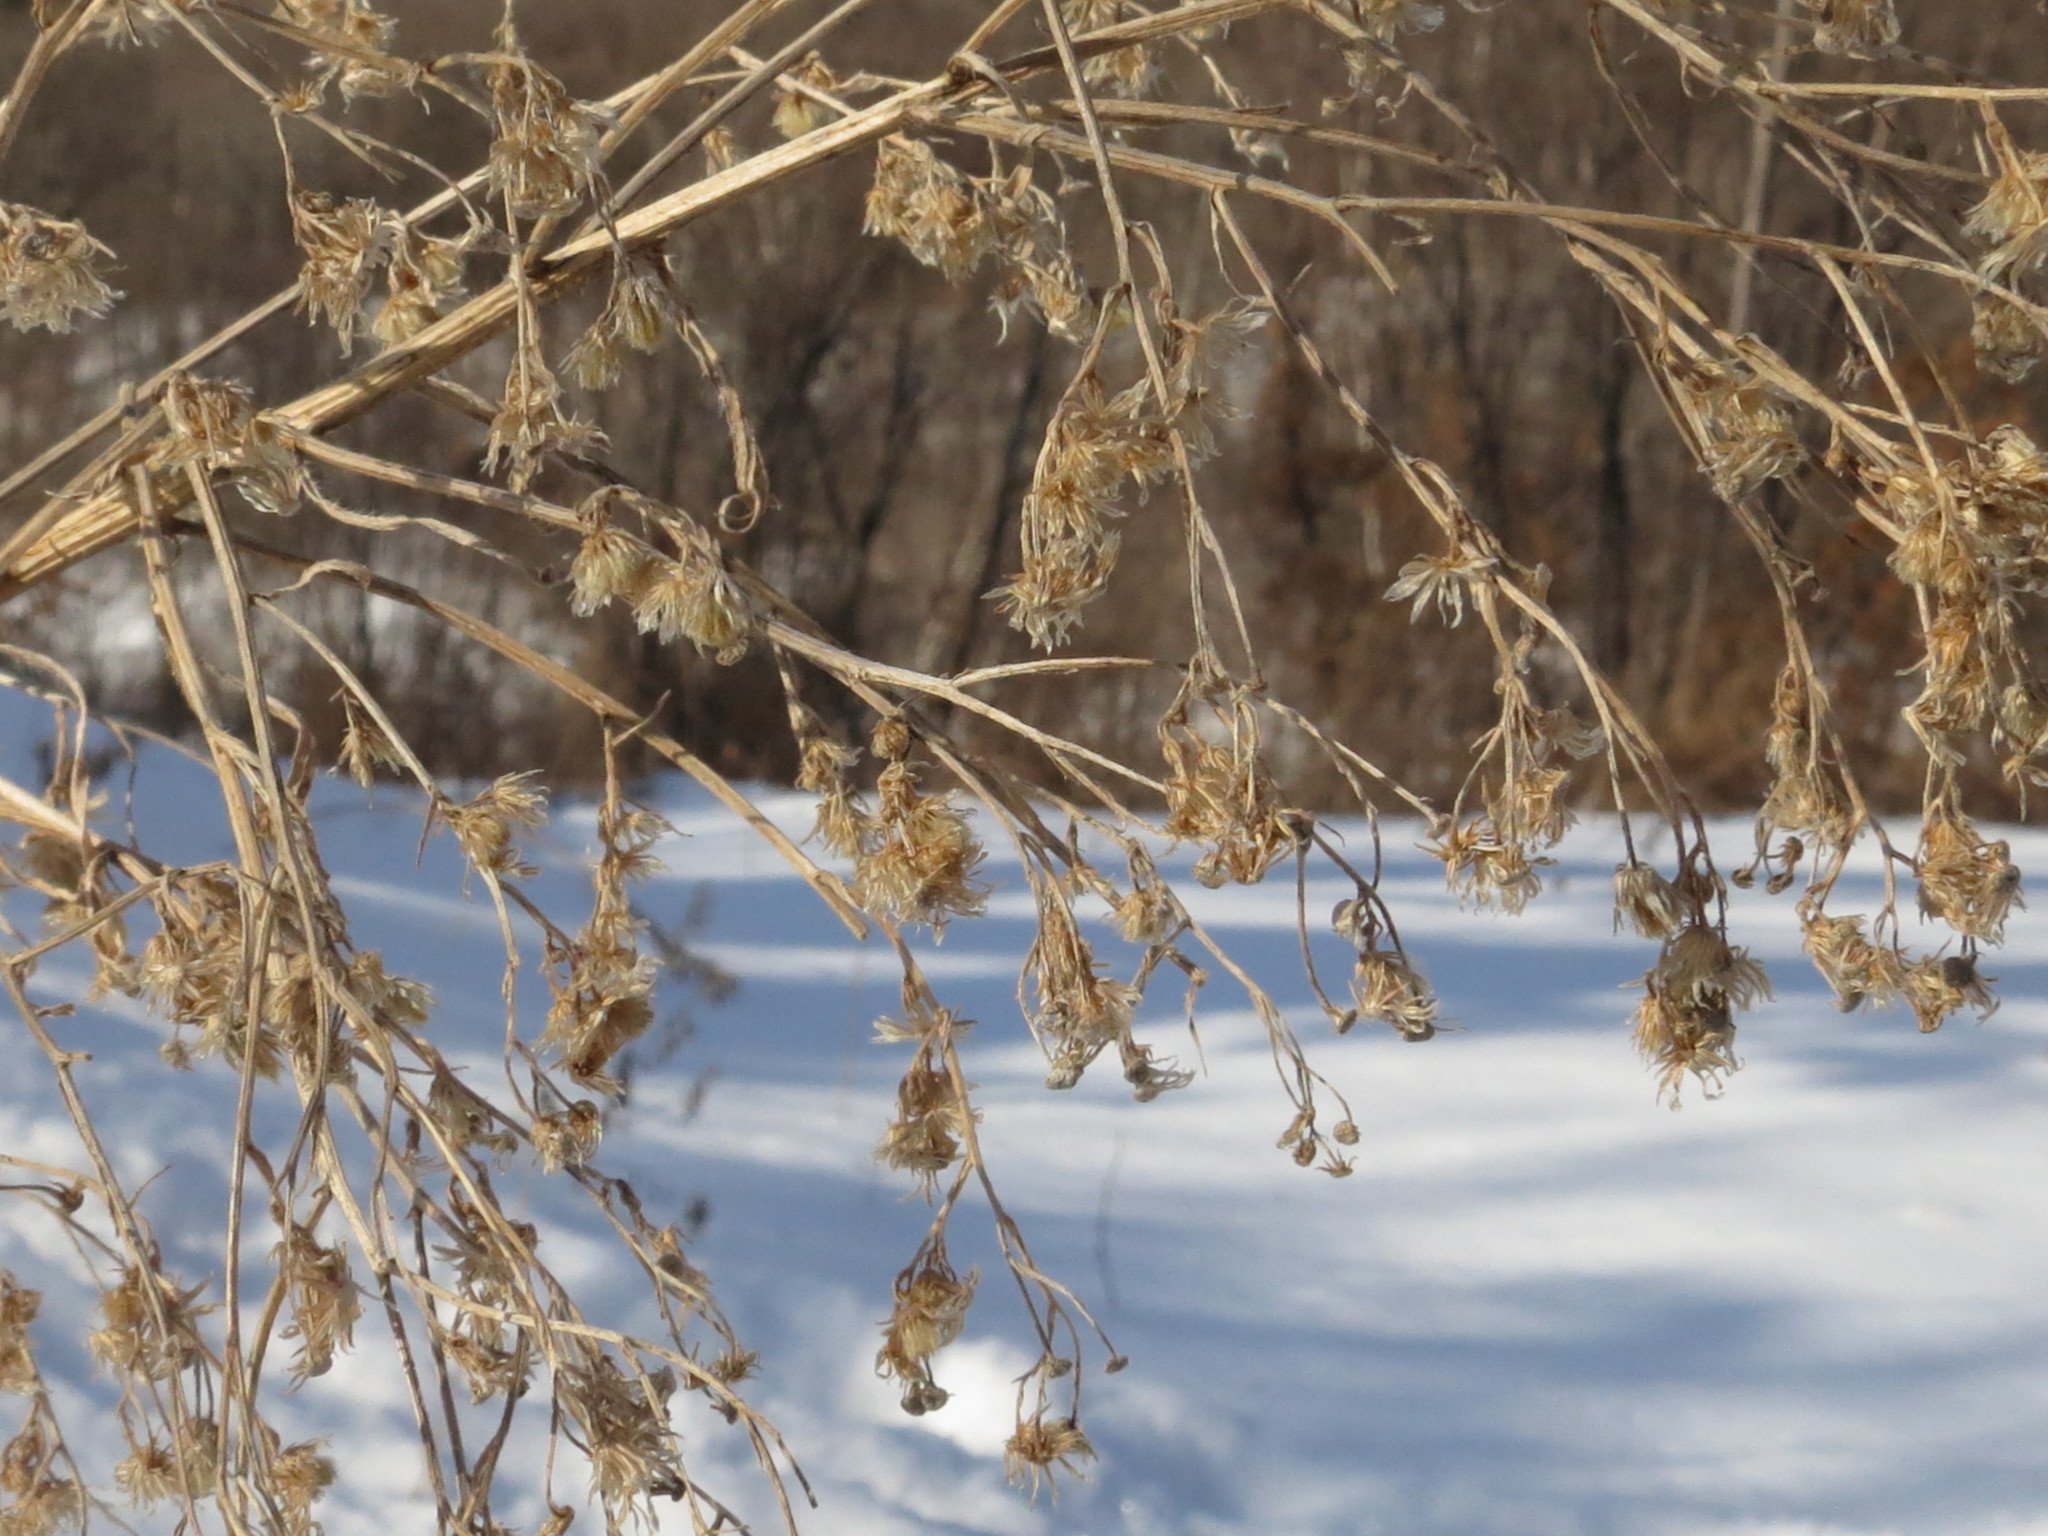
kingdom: Plantae
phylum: Tracheophyta
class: Magnoliopsida
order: Asterales
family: Asteraceae
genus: Erigeron
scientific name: Erigeron canadensis
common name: Canadian fleabane
